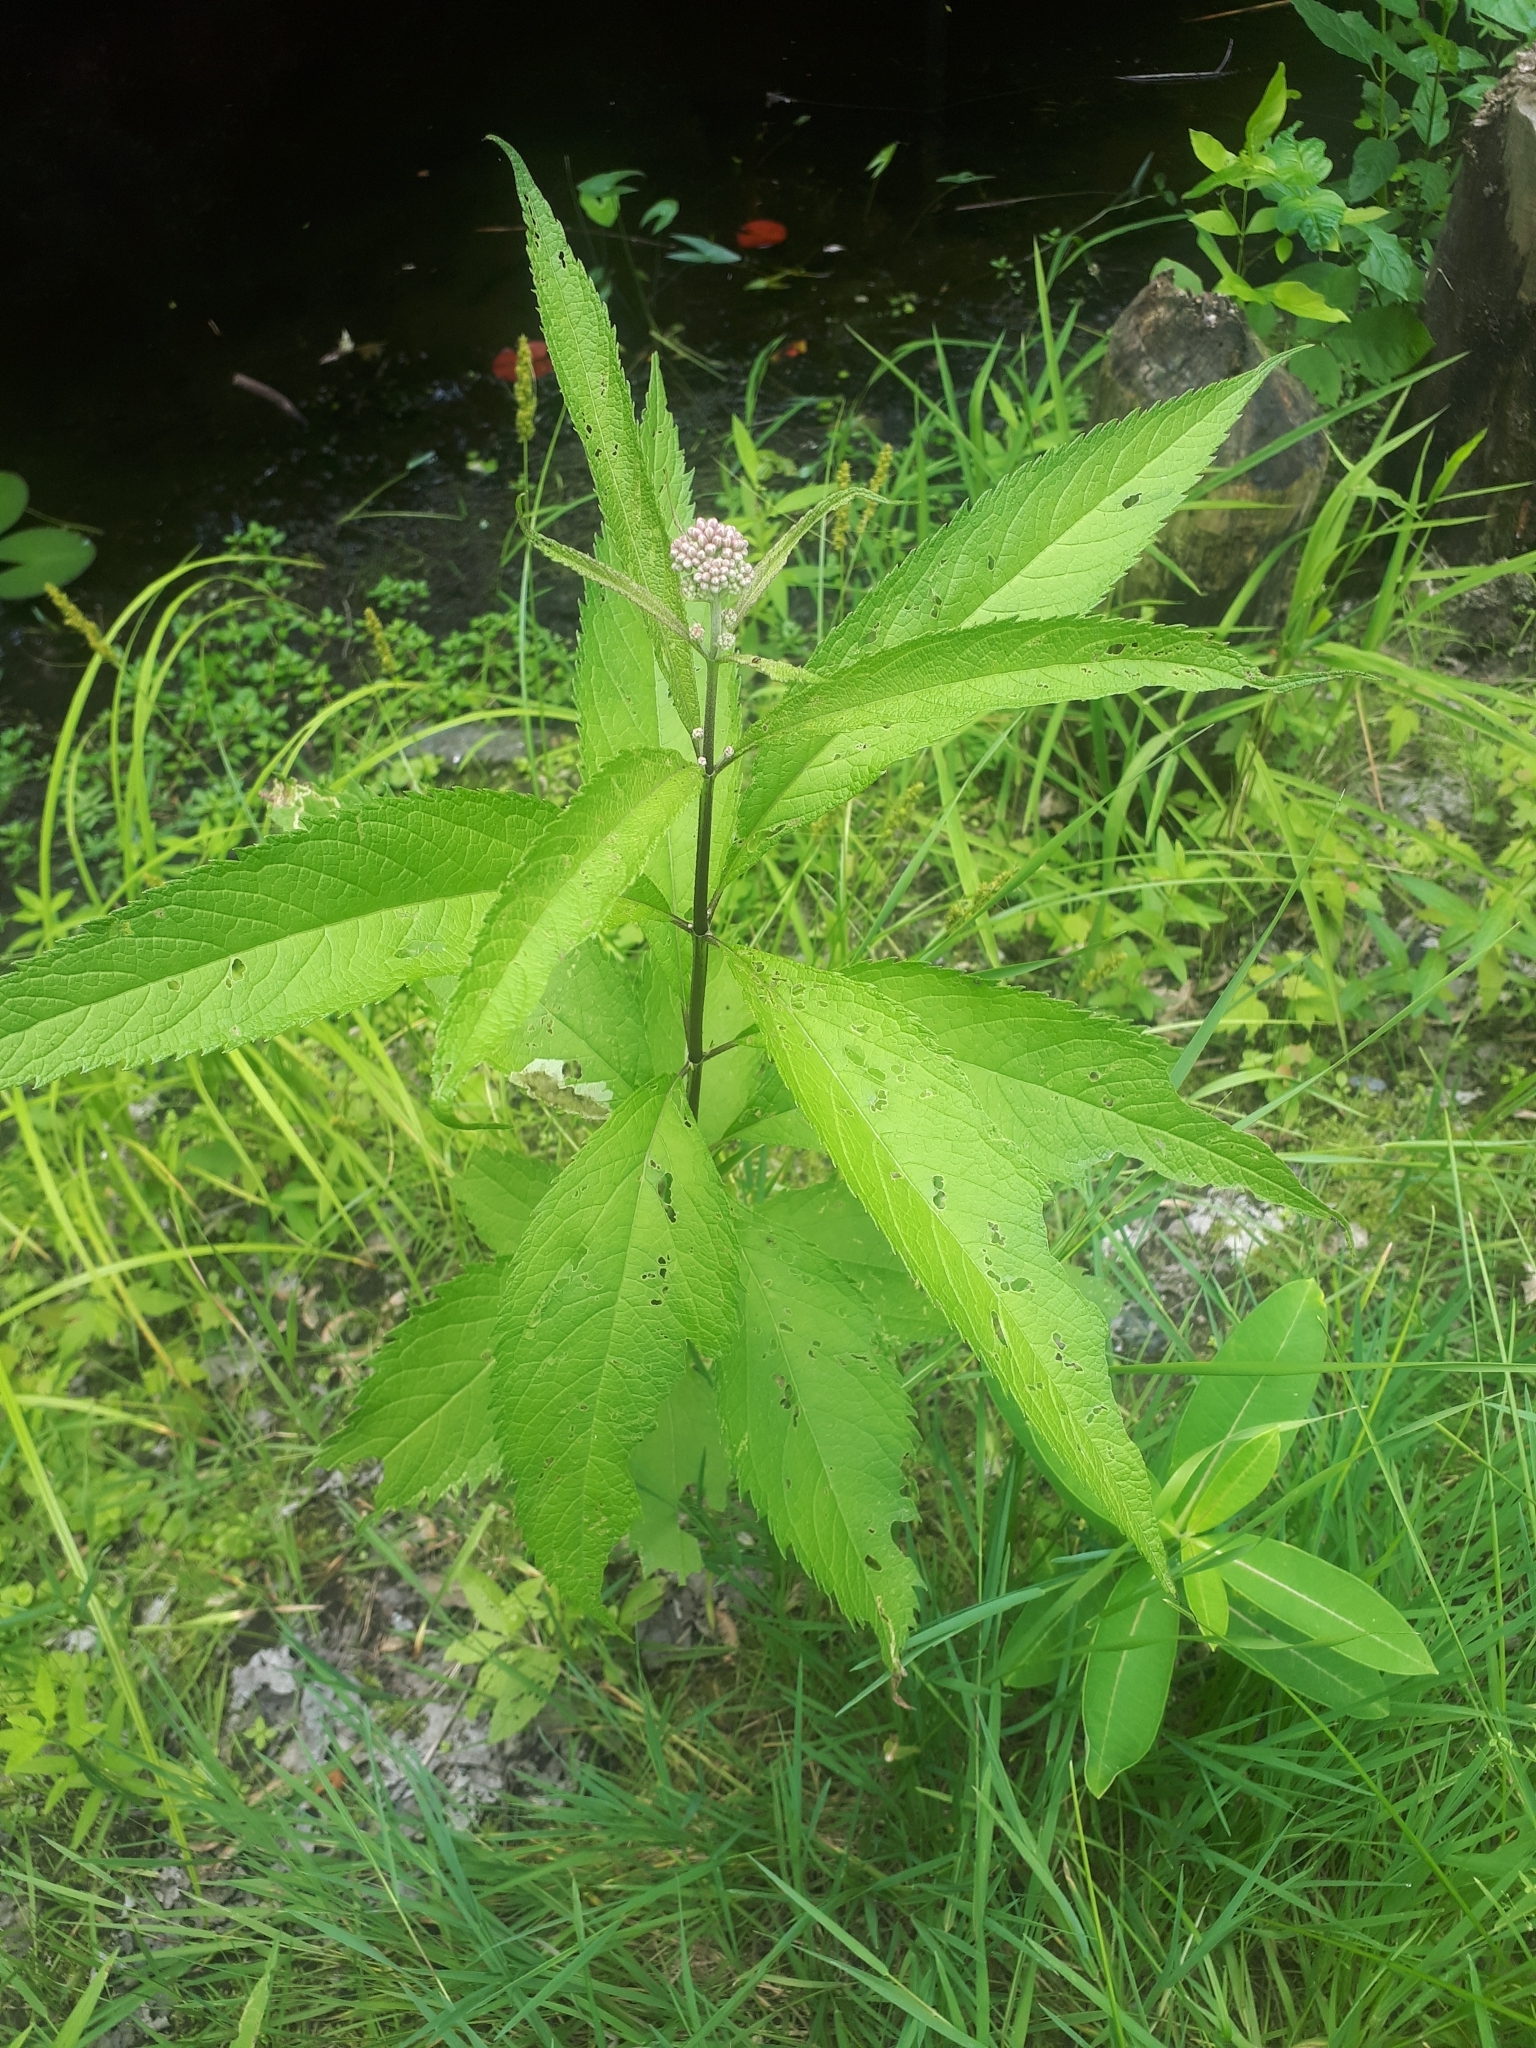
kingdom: Plantae
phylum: Tracheophyta
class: Magnoliopsida
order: Asterales
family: Asteraceae
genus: Eutrochium
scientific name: Eutrochium maculatum
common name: Spotted joe pye weed
